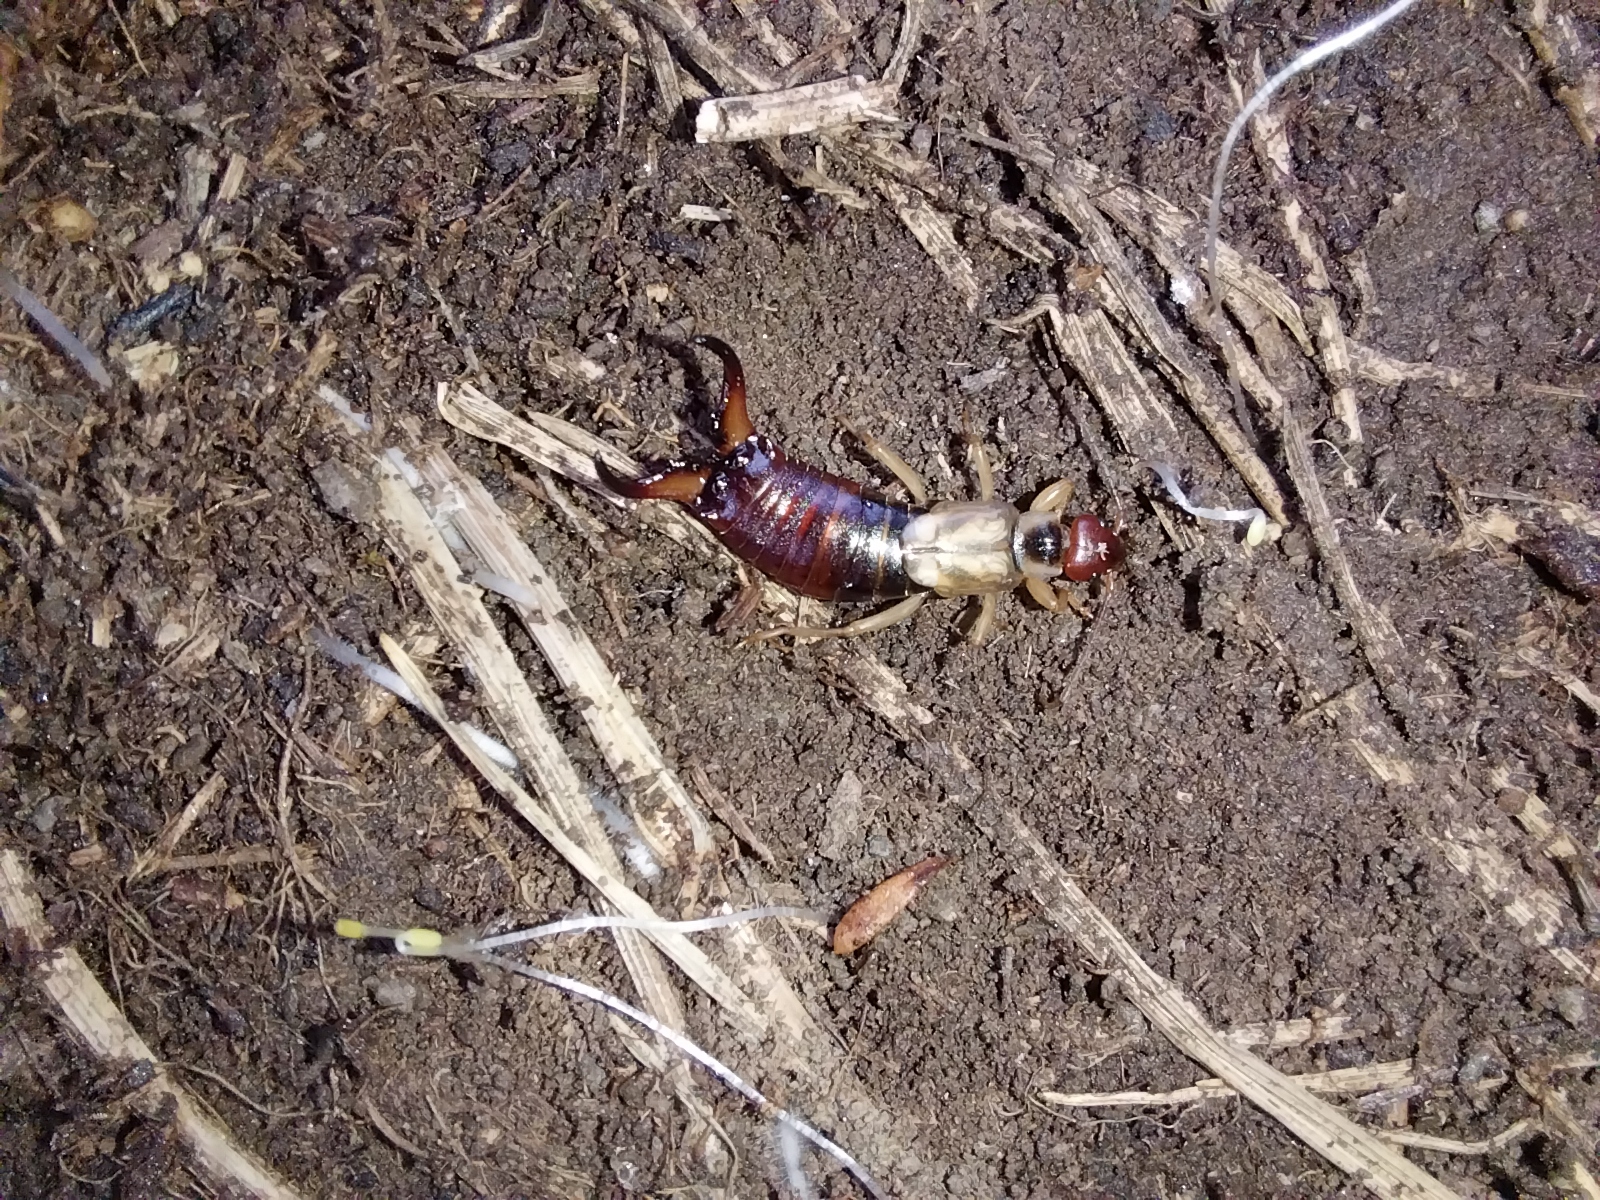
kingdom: Animalia
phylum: Arthropoda
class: Insecta
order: Dermaptera
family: Forficulidae
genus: Forficula
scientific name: Forficula
